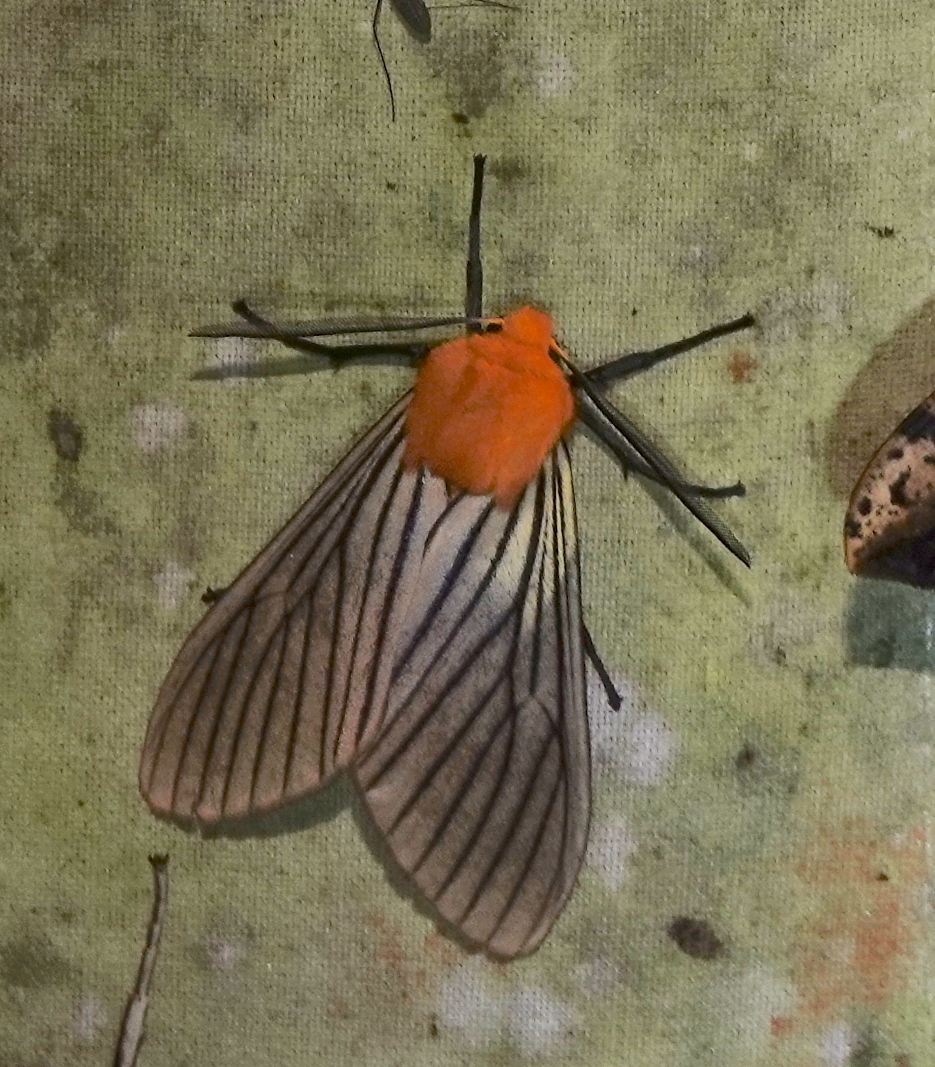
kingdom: Animalia
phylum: Arthropoda
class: Insecta
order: Lepidoptera
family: Erebidae
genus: Pseudischnocampa
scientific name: Pseudischnocampa humosa
